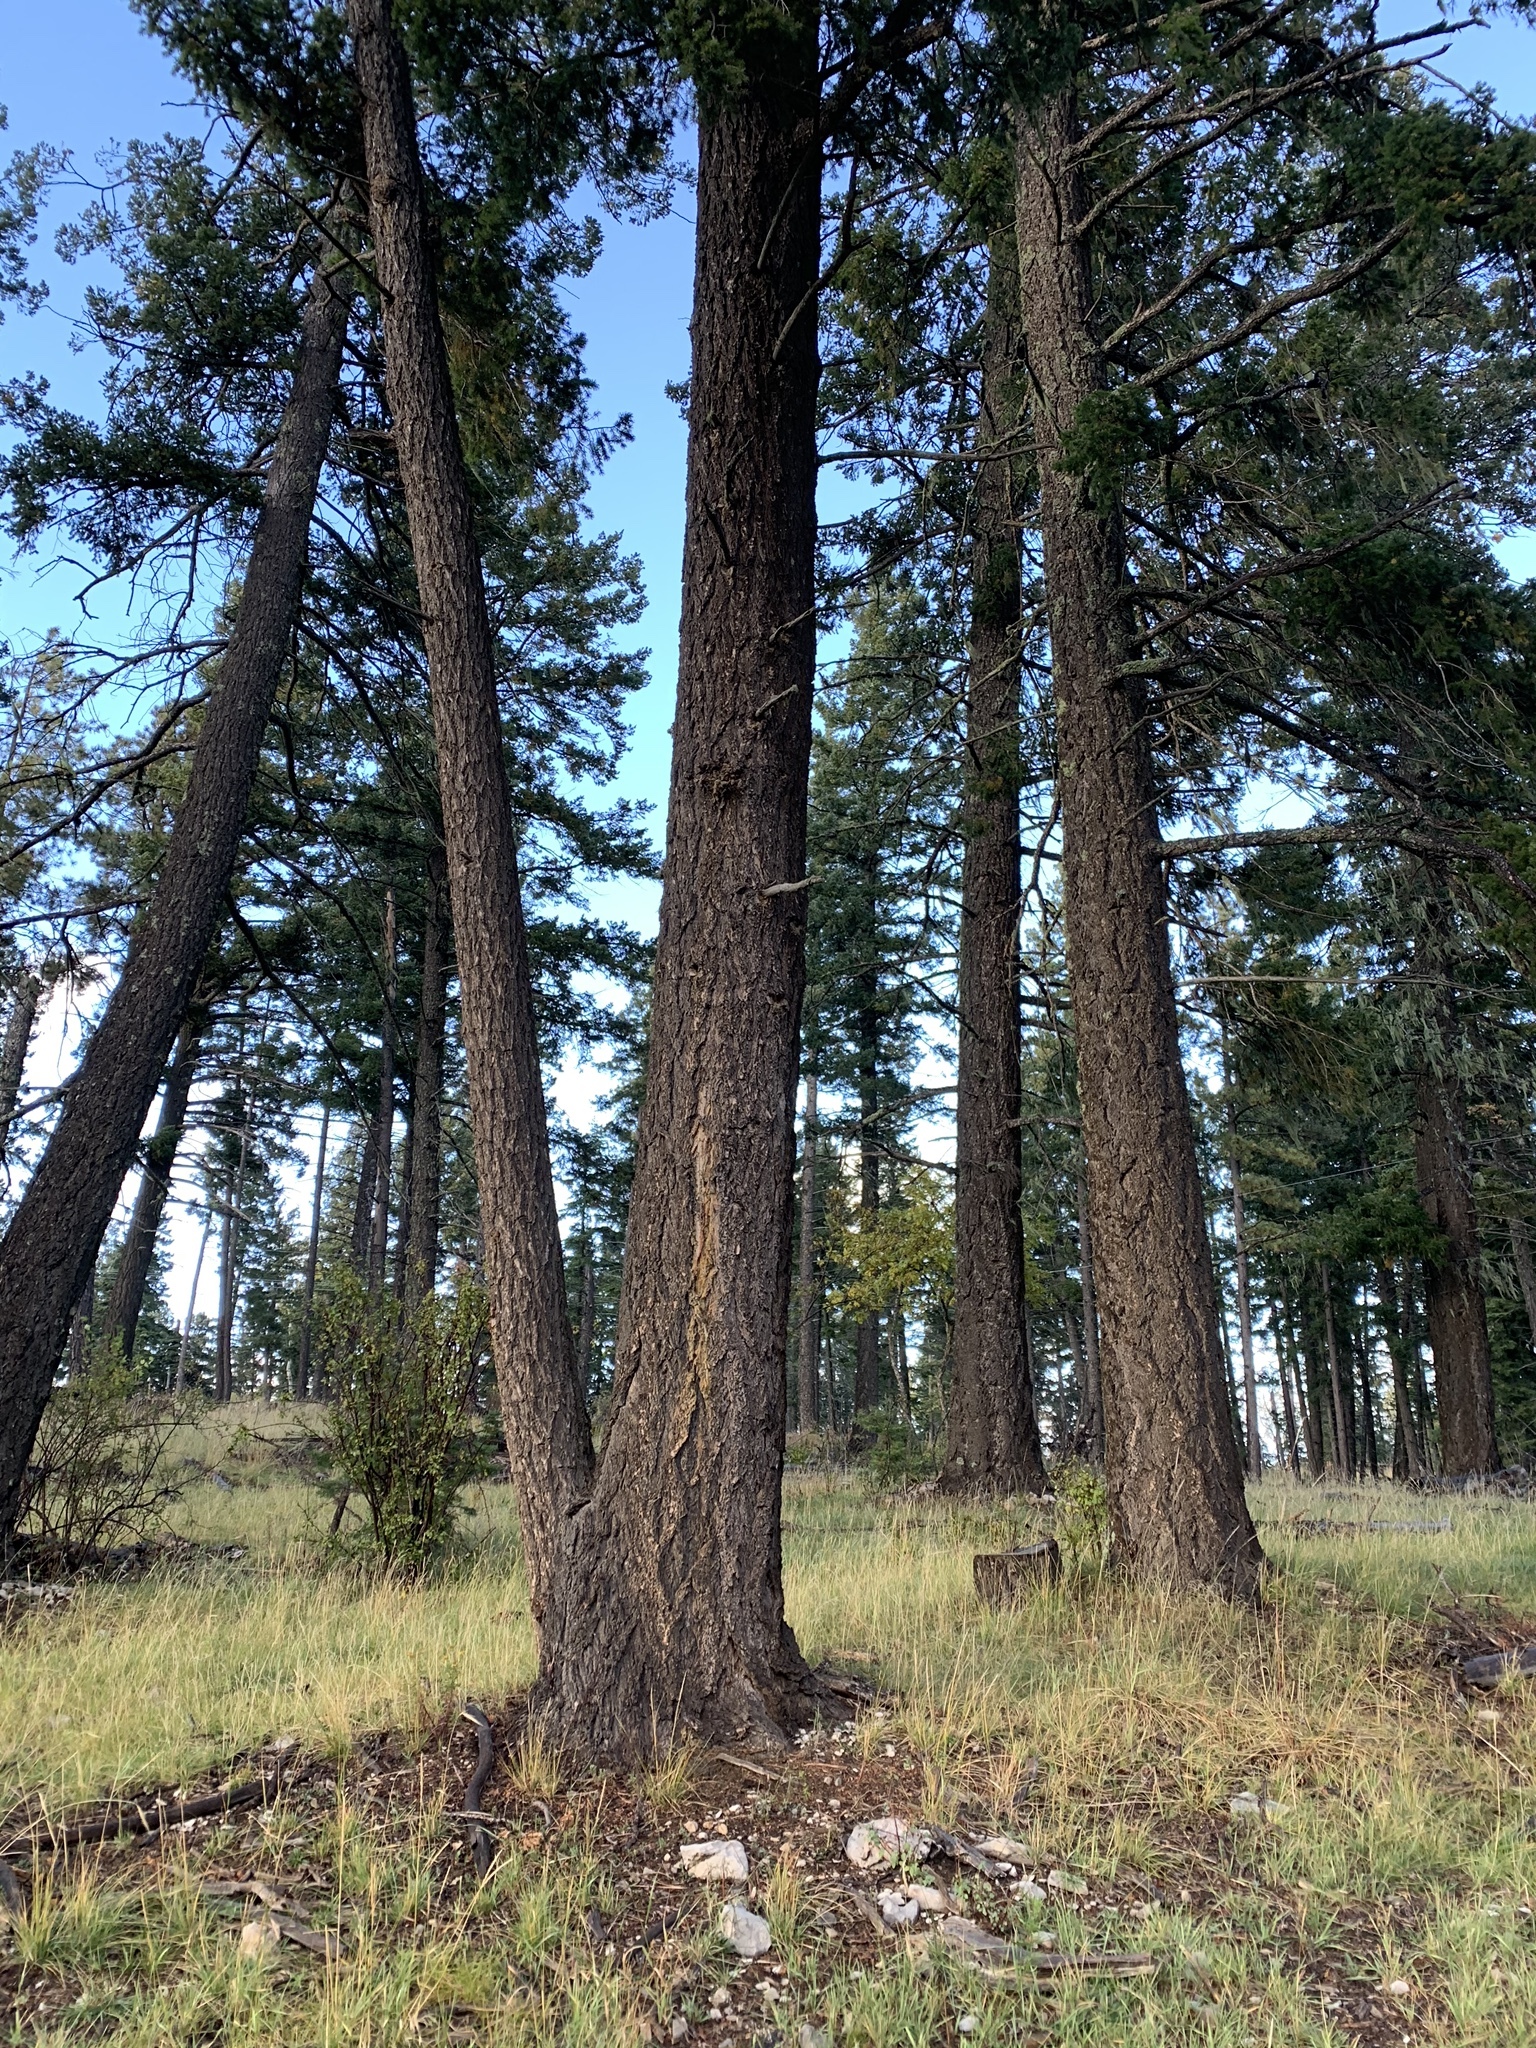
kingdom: Plantae
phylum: Tracheophyta
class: Pinopsida
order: Pinales
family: Pinaceae
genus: Pseudotsuga
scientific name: Pseudotsuga menziesii
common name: Douglas fir
